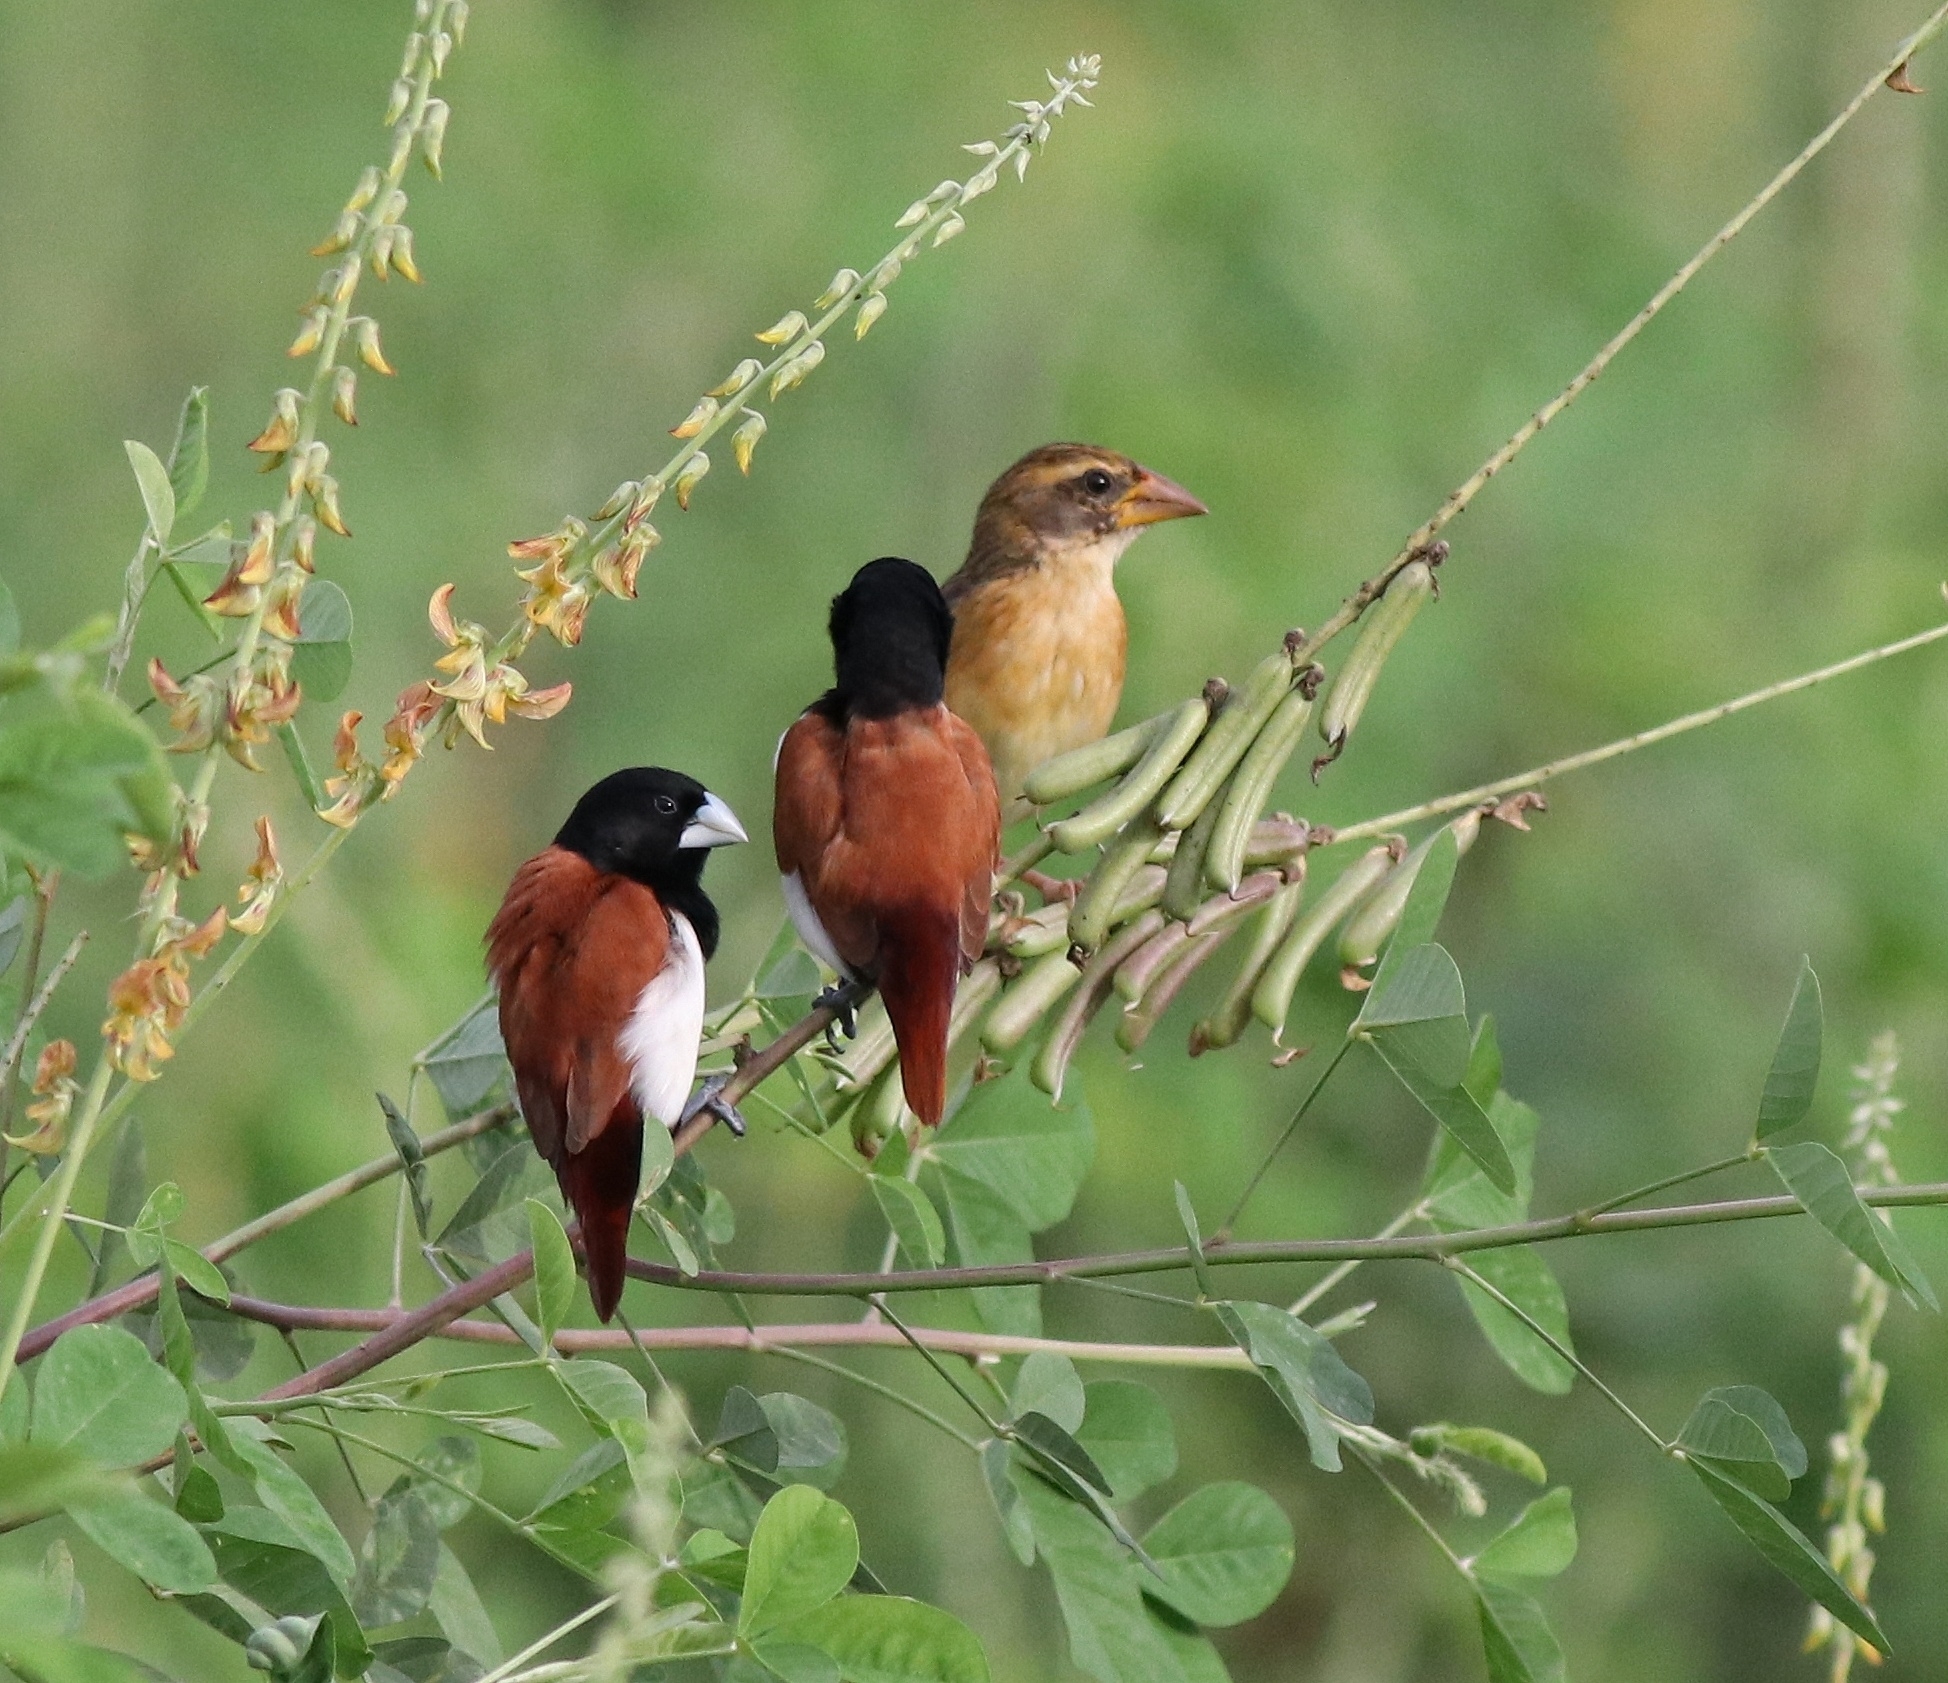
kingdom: Animalia
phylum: Chordata
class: Aves
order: Passeriformes
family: Ploceidae
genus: Ploceus
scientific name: Ploceus philippinus
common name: Baya weaver
